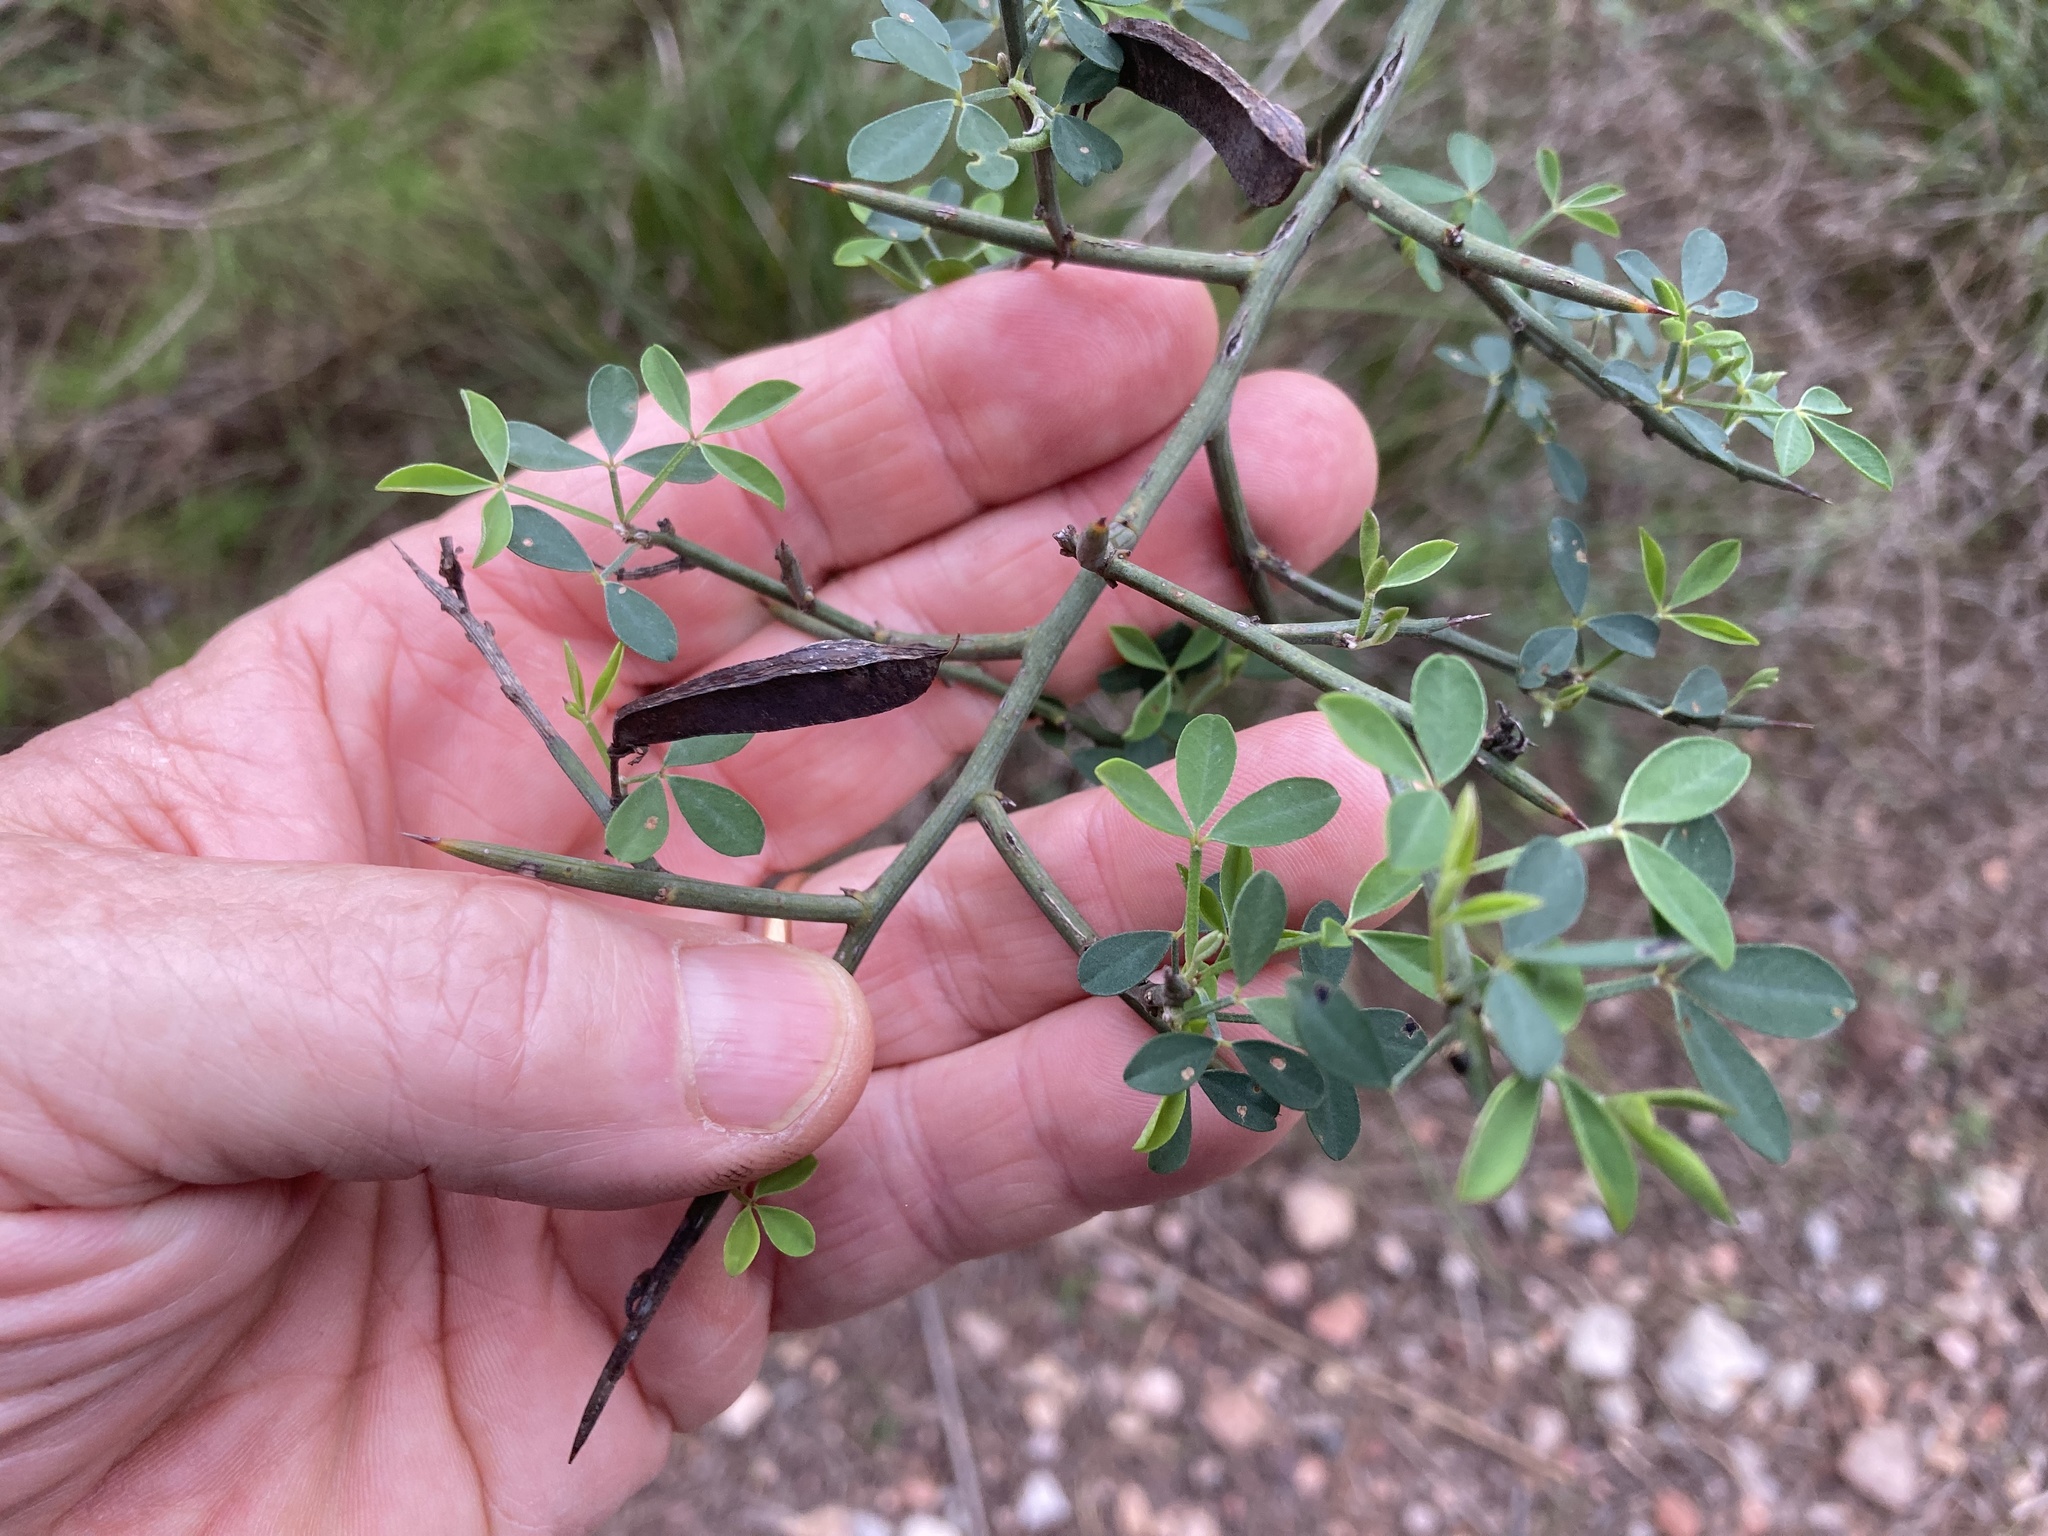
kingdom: Plantae
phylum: Tracheophyta
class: Magnoliopsida
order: Fabales
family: Fabaceae
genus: Calicotome
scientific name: Calicotome spinosa
